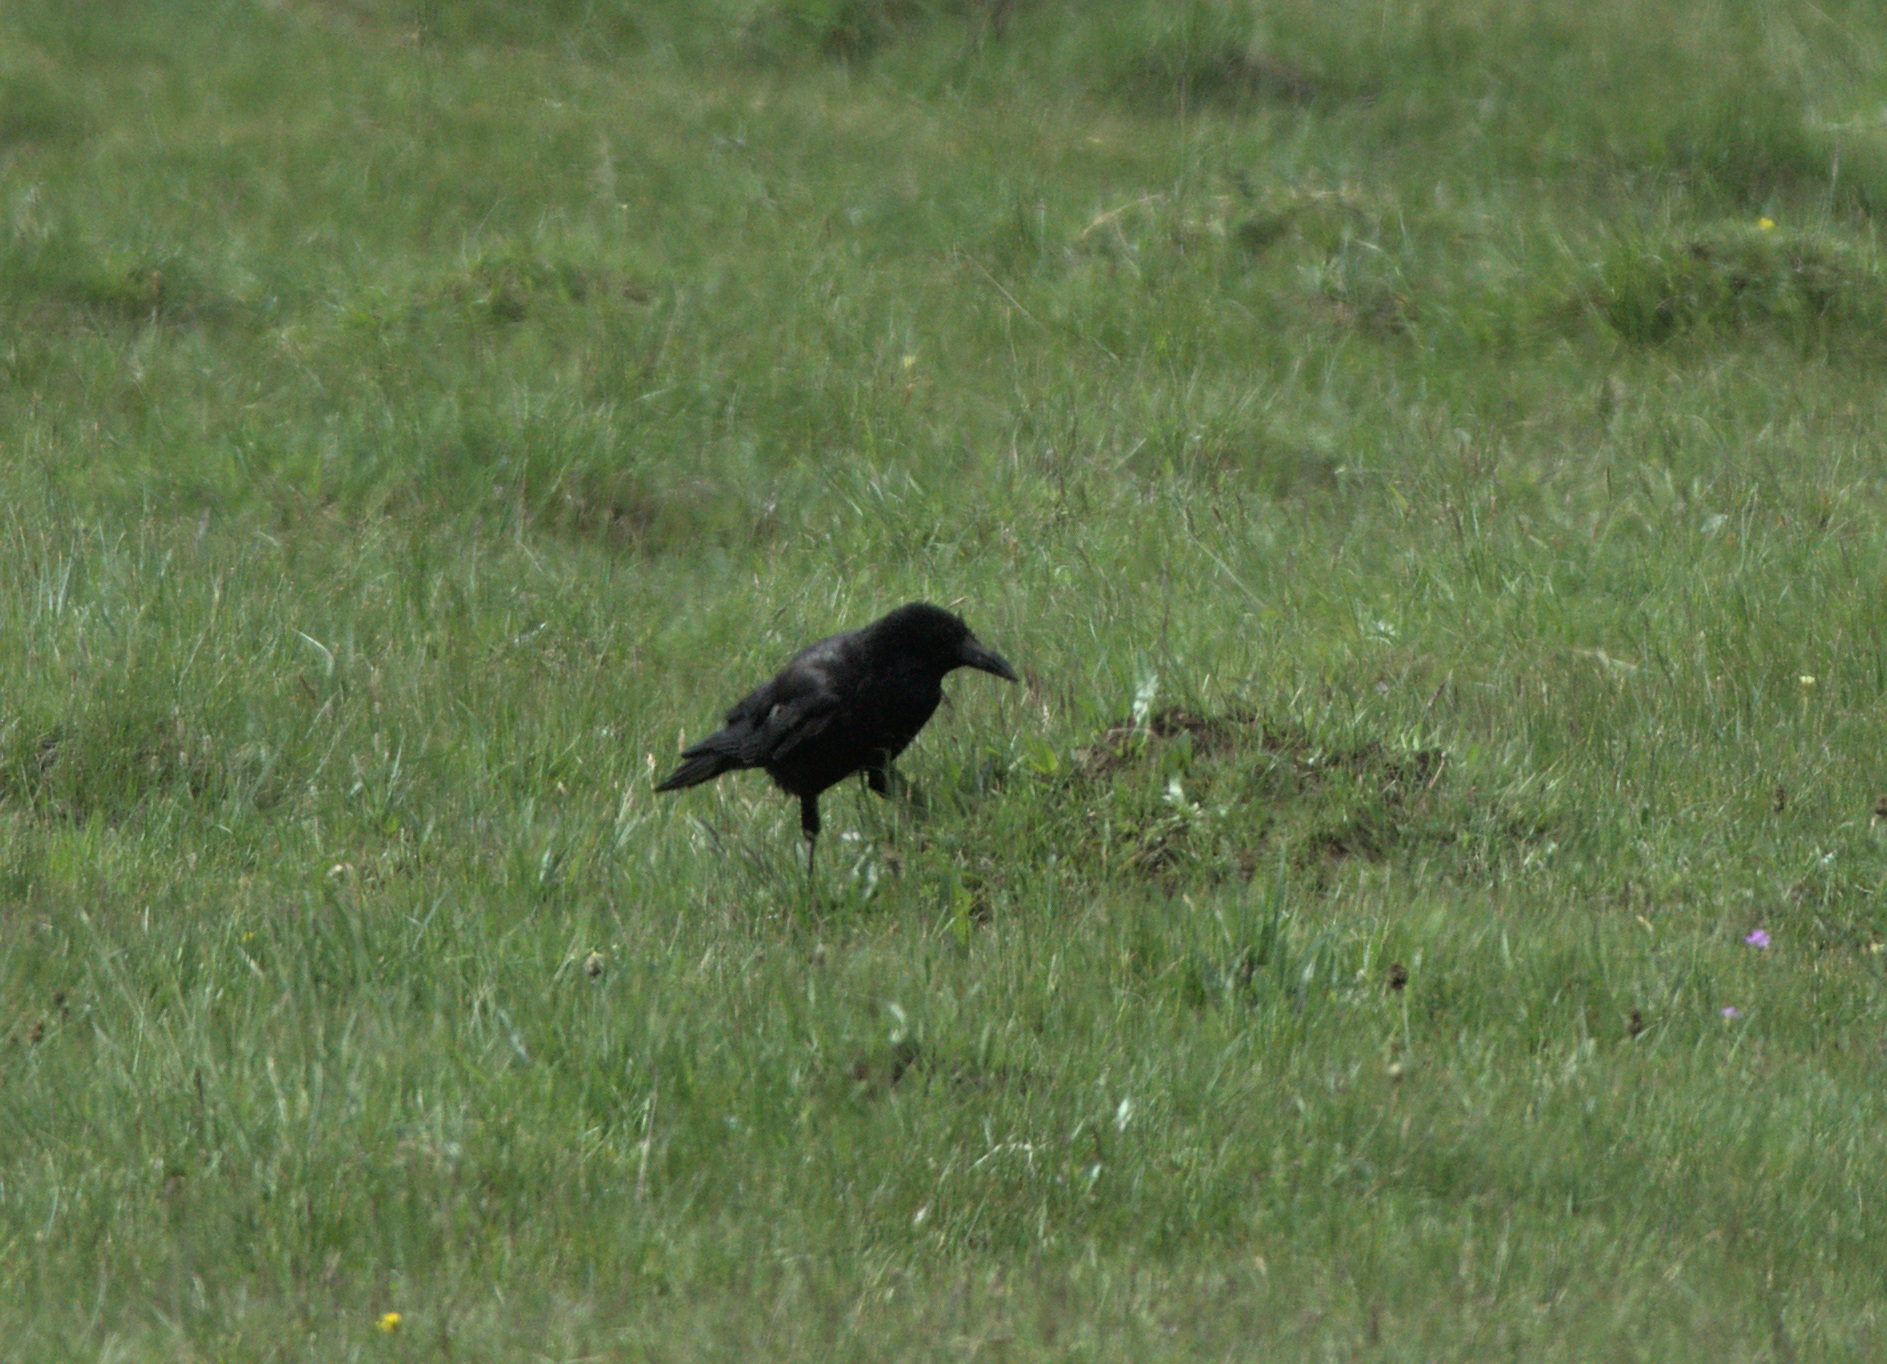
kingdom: Animalia
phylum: Chordata
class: Aves
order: Passeriformes
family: Corvidae
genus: Corvus
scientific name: Corvus frugilegus
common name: Rook
